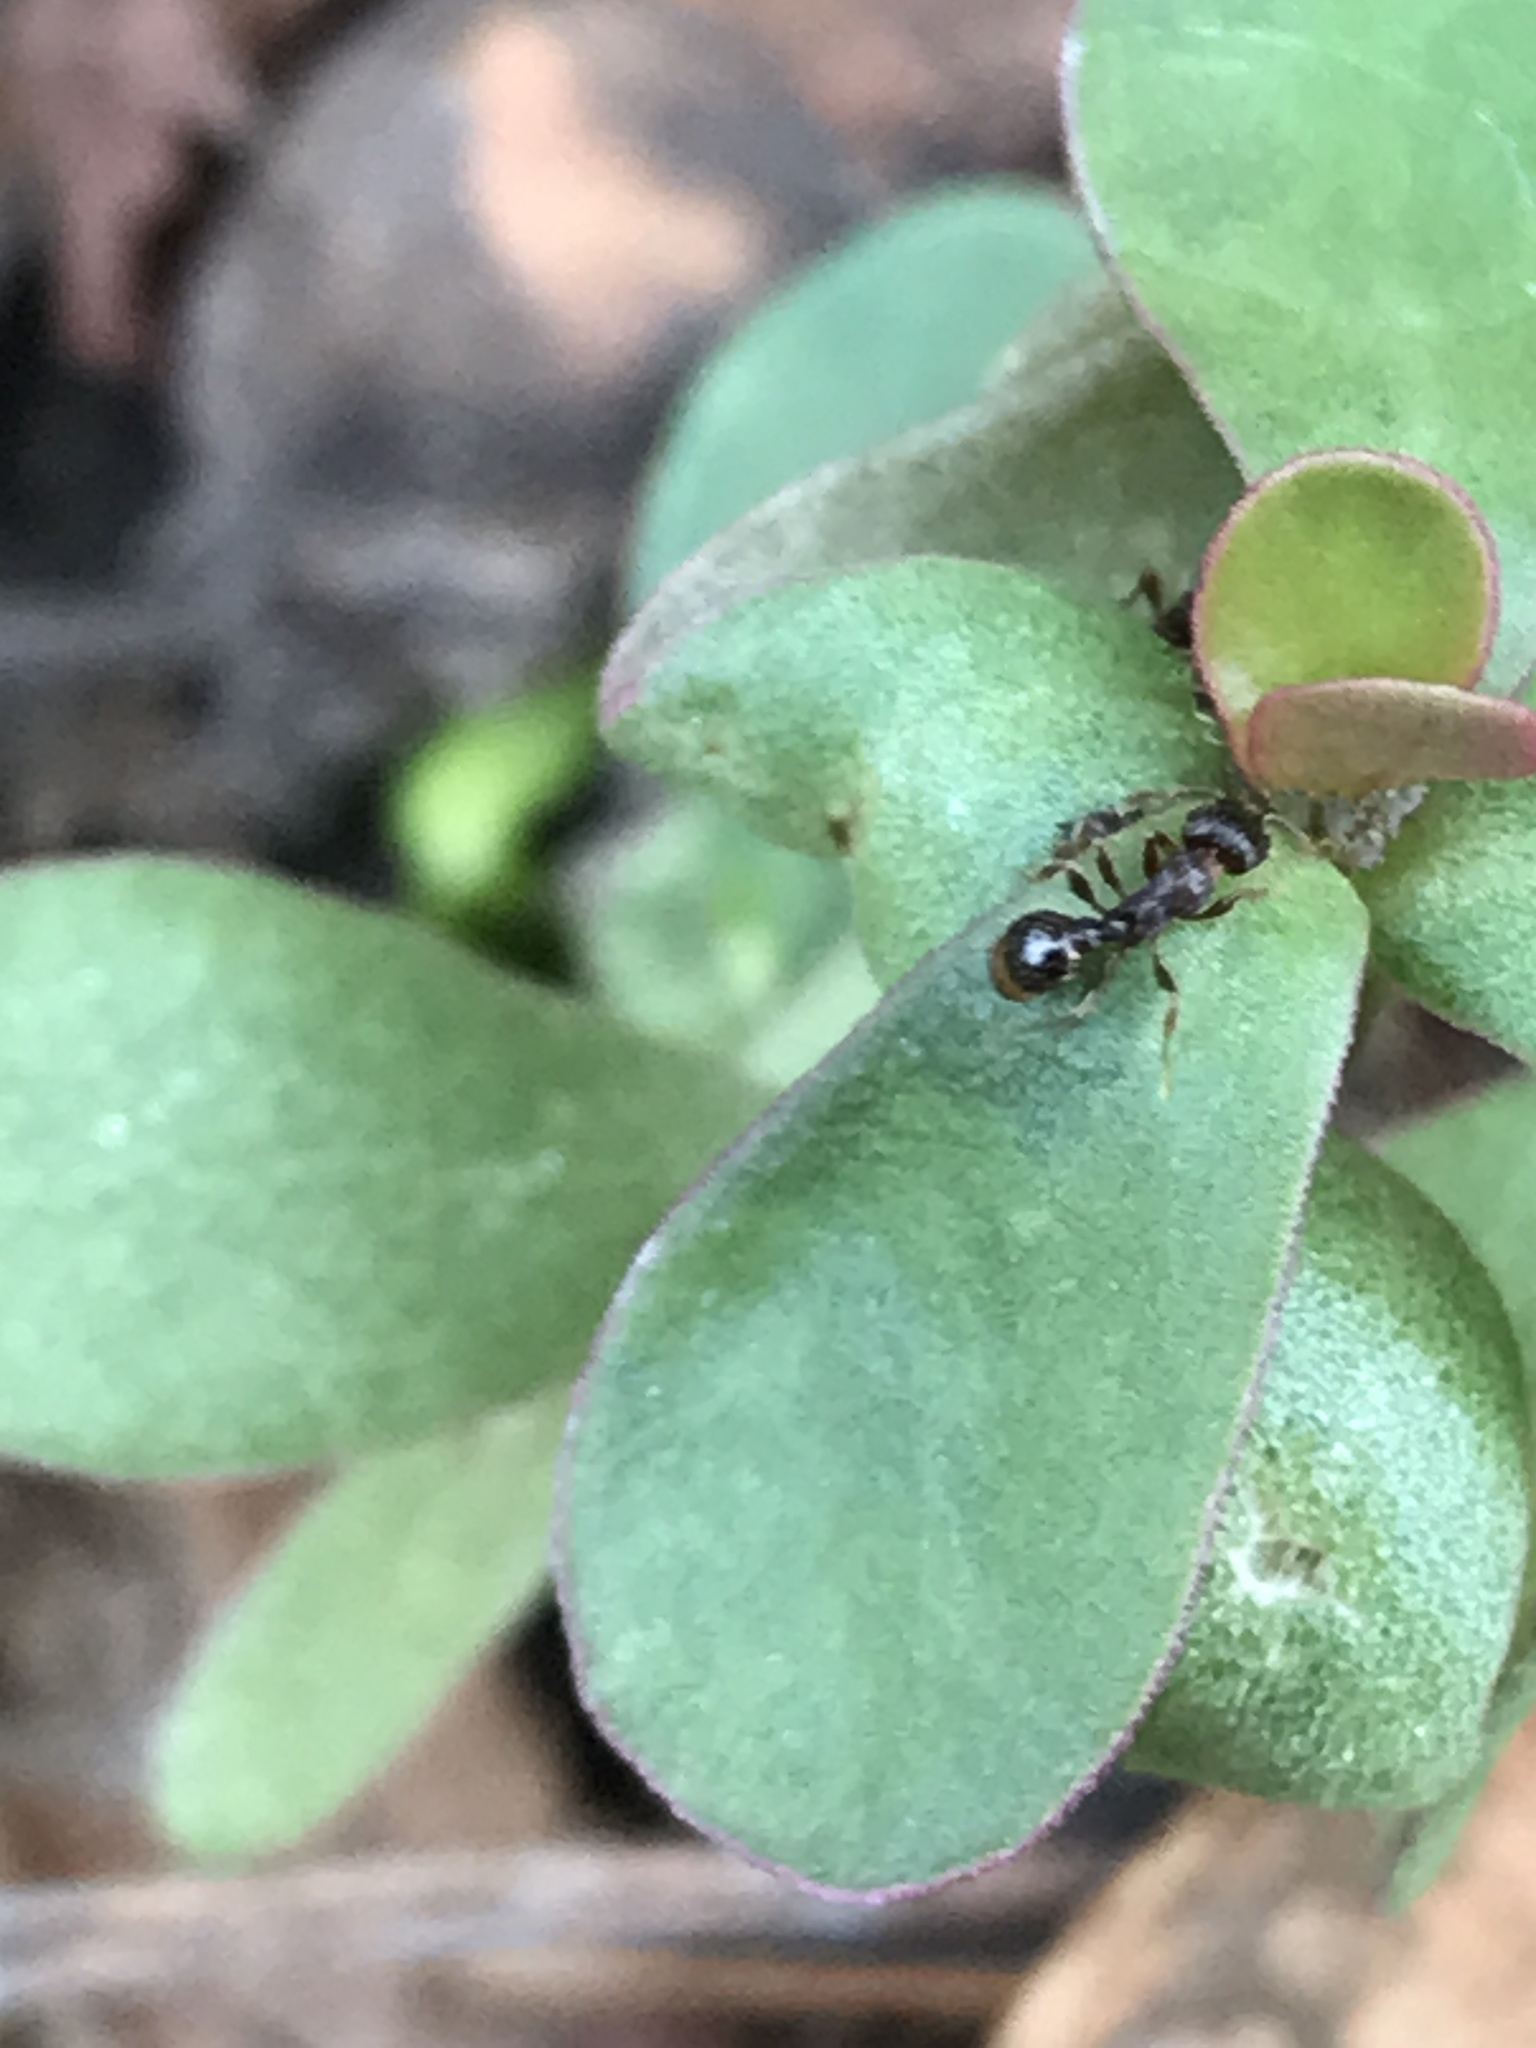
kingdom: Animalia
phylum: Arthropoda
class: Insecta
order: Hymenoptera
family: Formicidae
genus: Tetramorium
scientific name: Tetramorium immigrans
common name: Pavement ant
